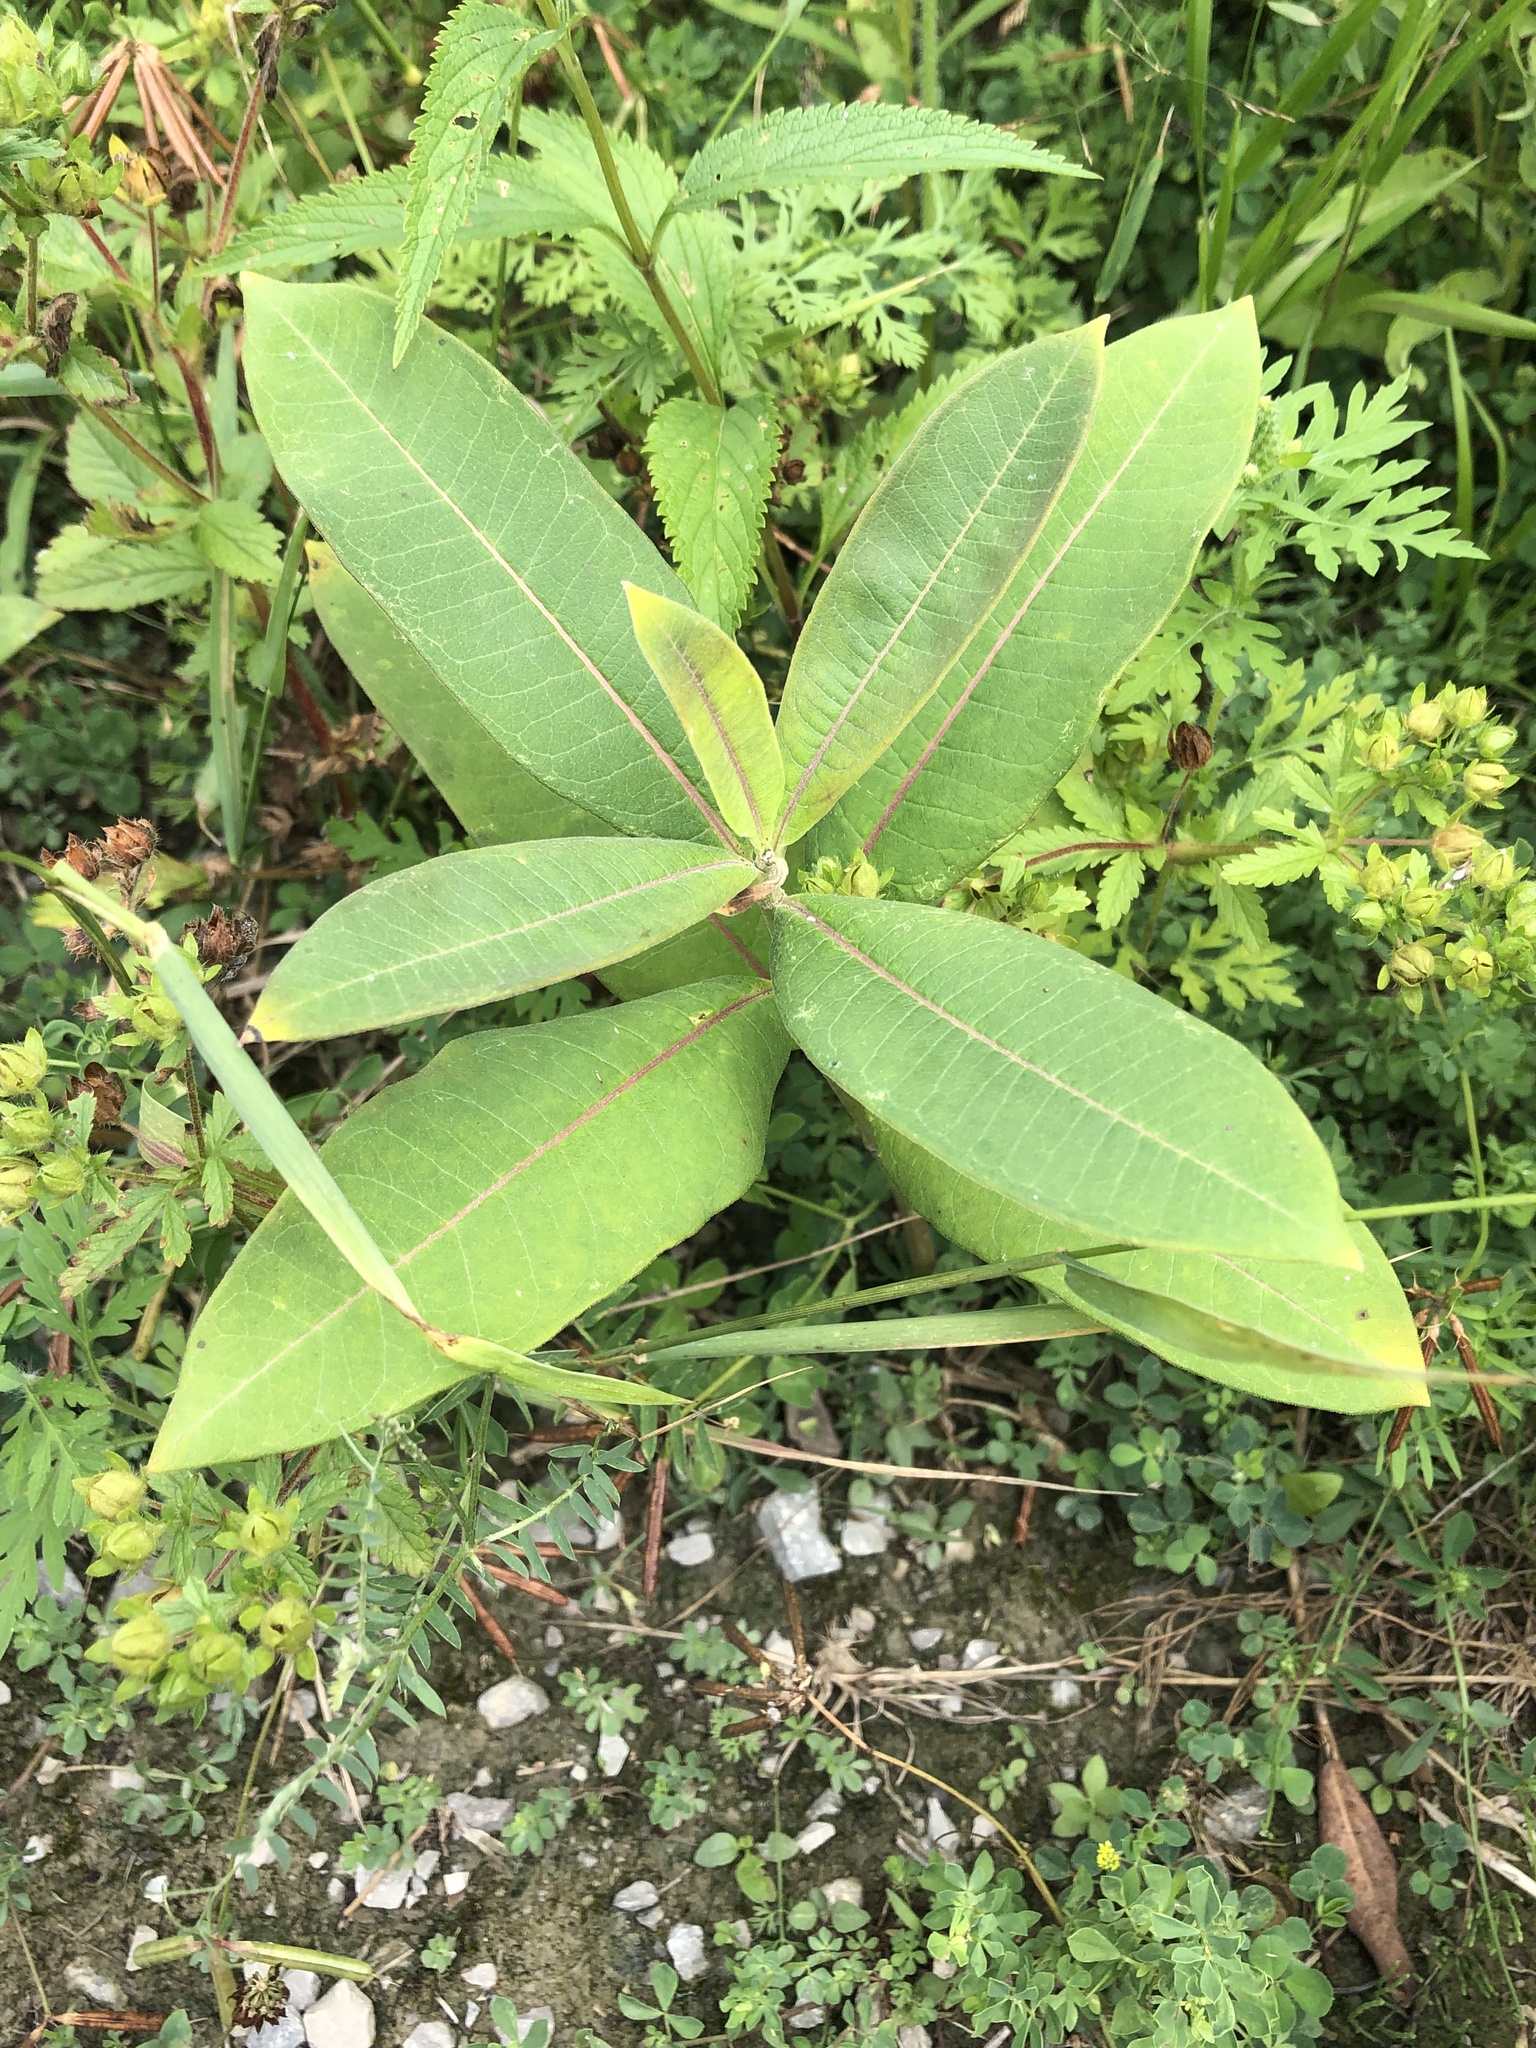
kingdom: Plantae
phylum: Tracheophyta
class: Magnoliopsida
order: Gentianales
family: Apocynaceae
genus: Asclepias
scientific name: Asclepias syriaca
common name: Common milkweed
